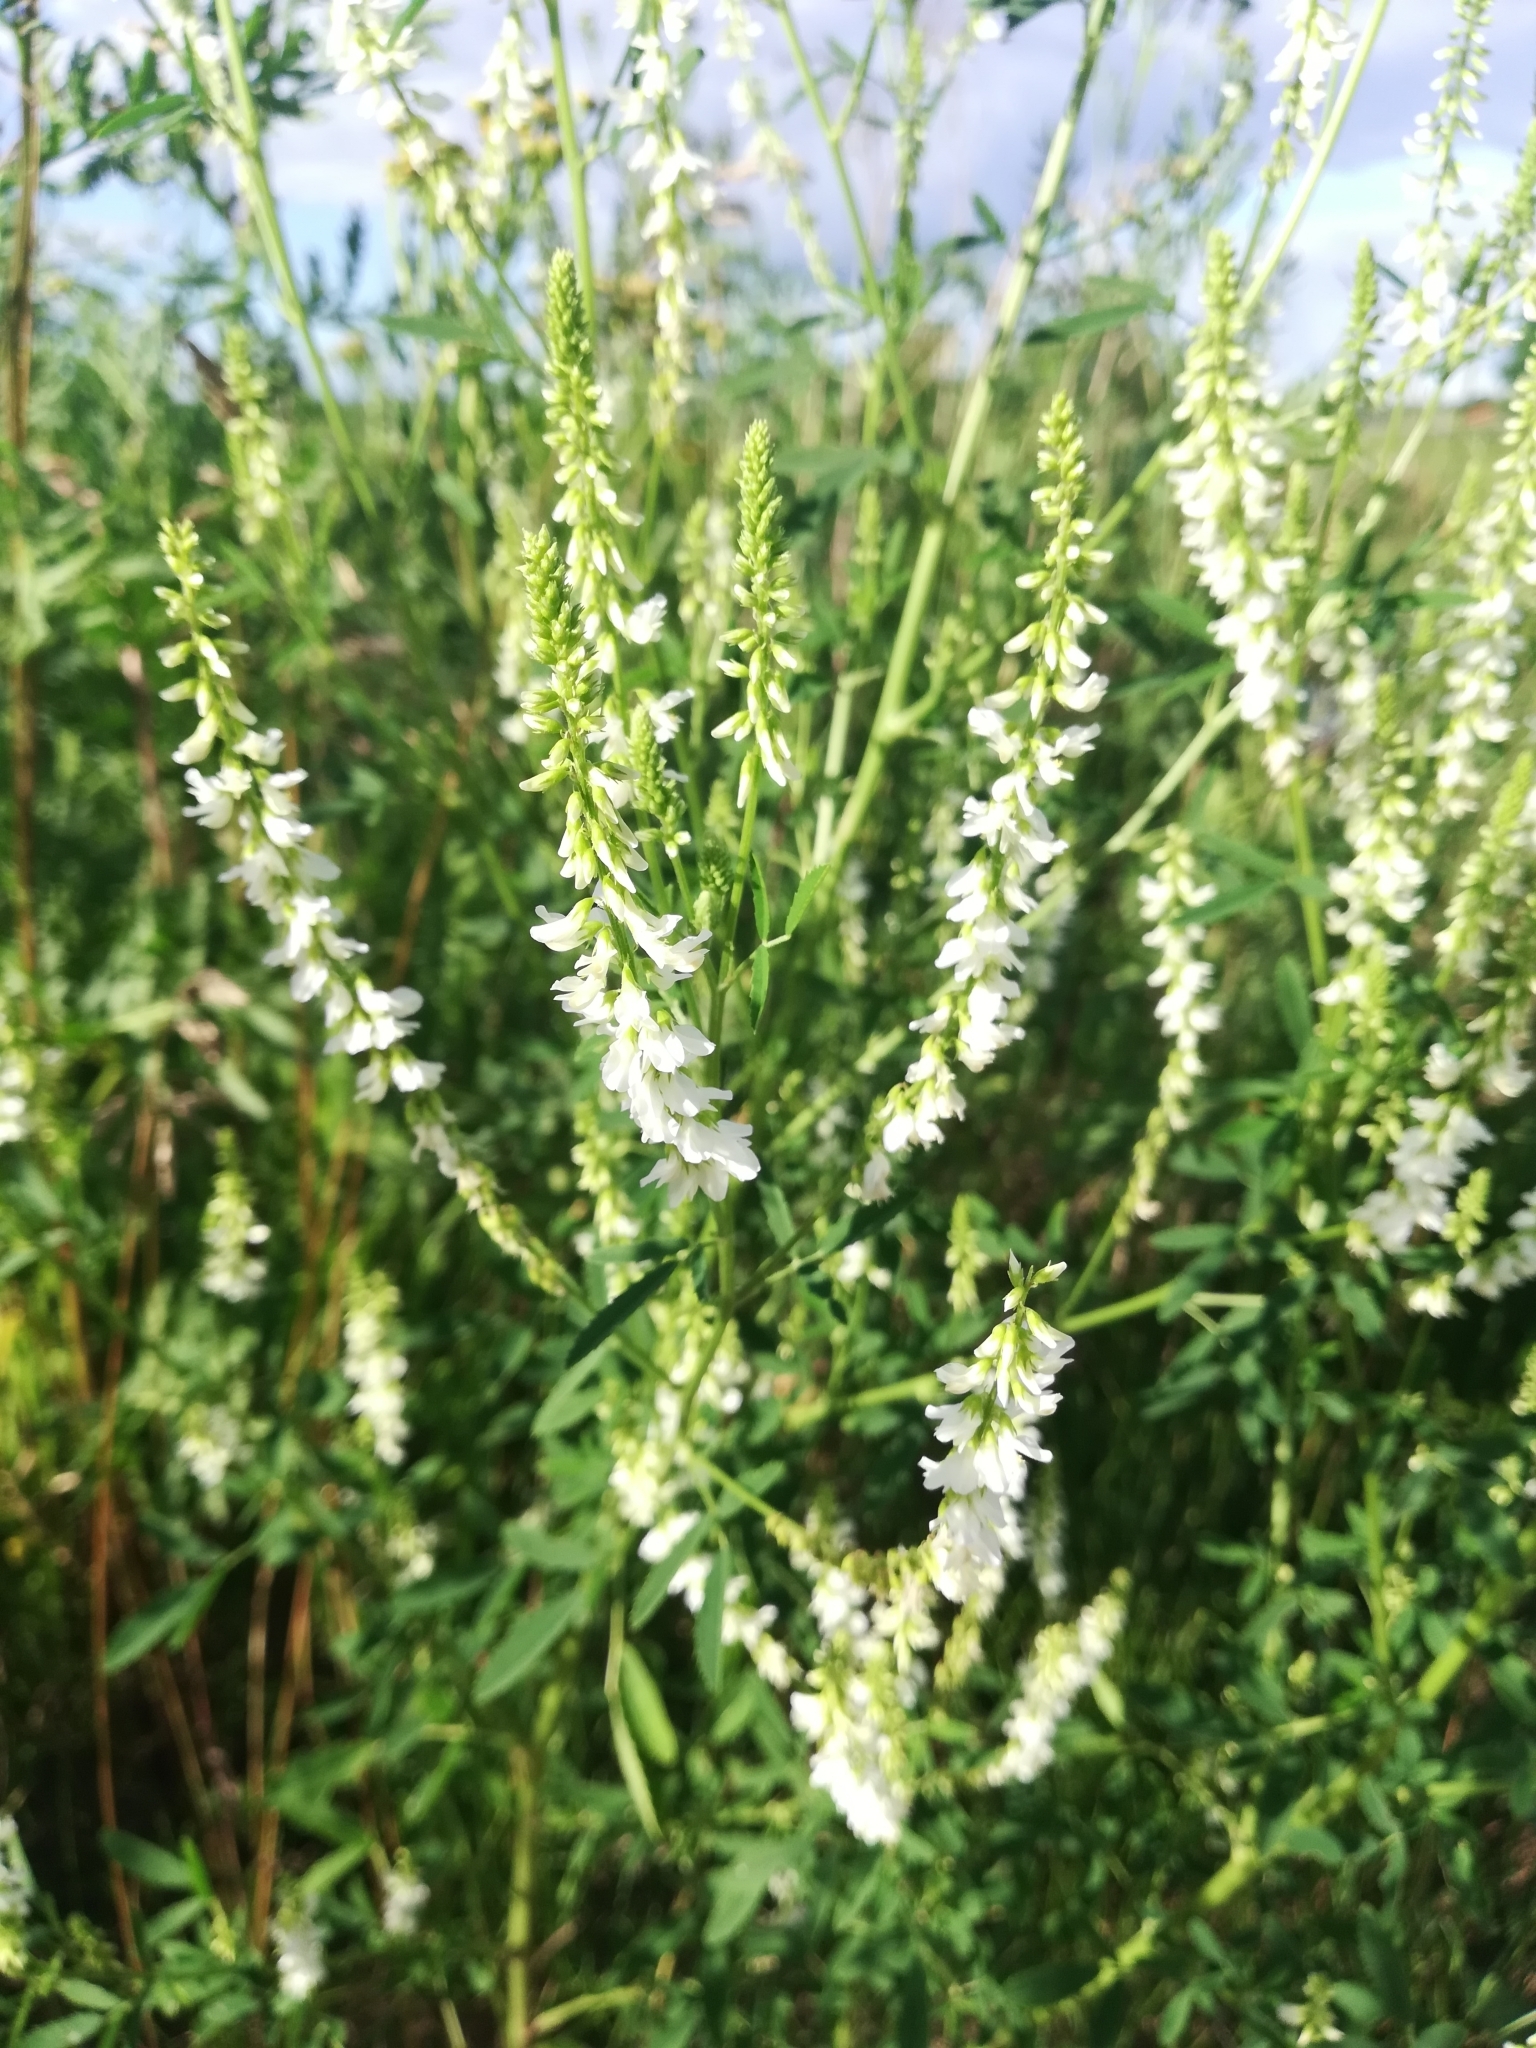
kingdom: Plantae
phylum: Tracheophyta
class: Magnoliopsida
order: Fabales
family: Fabaceae
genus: Melilotus
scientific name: Melilotus albus
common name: White melilot
